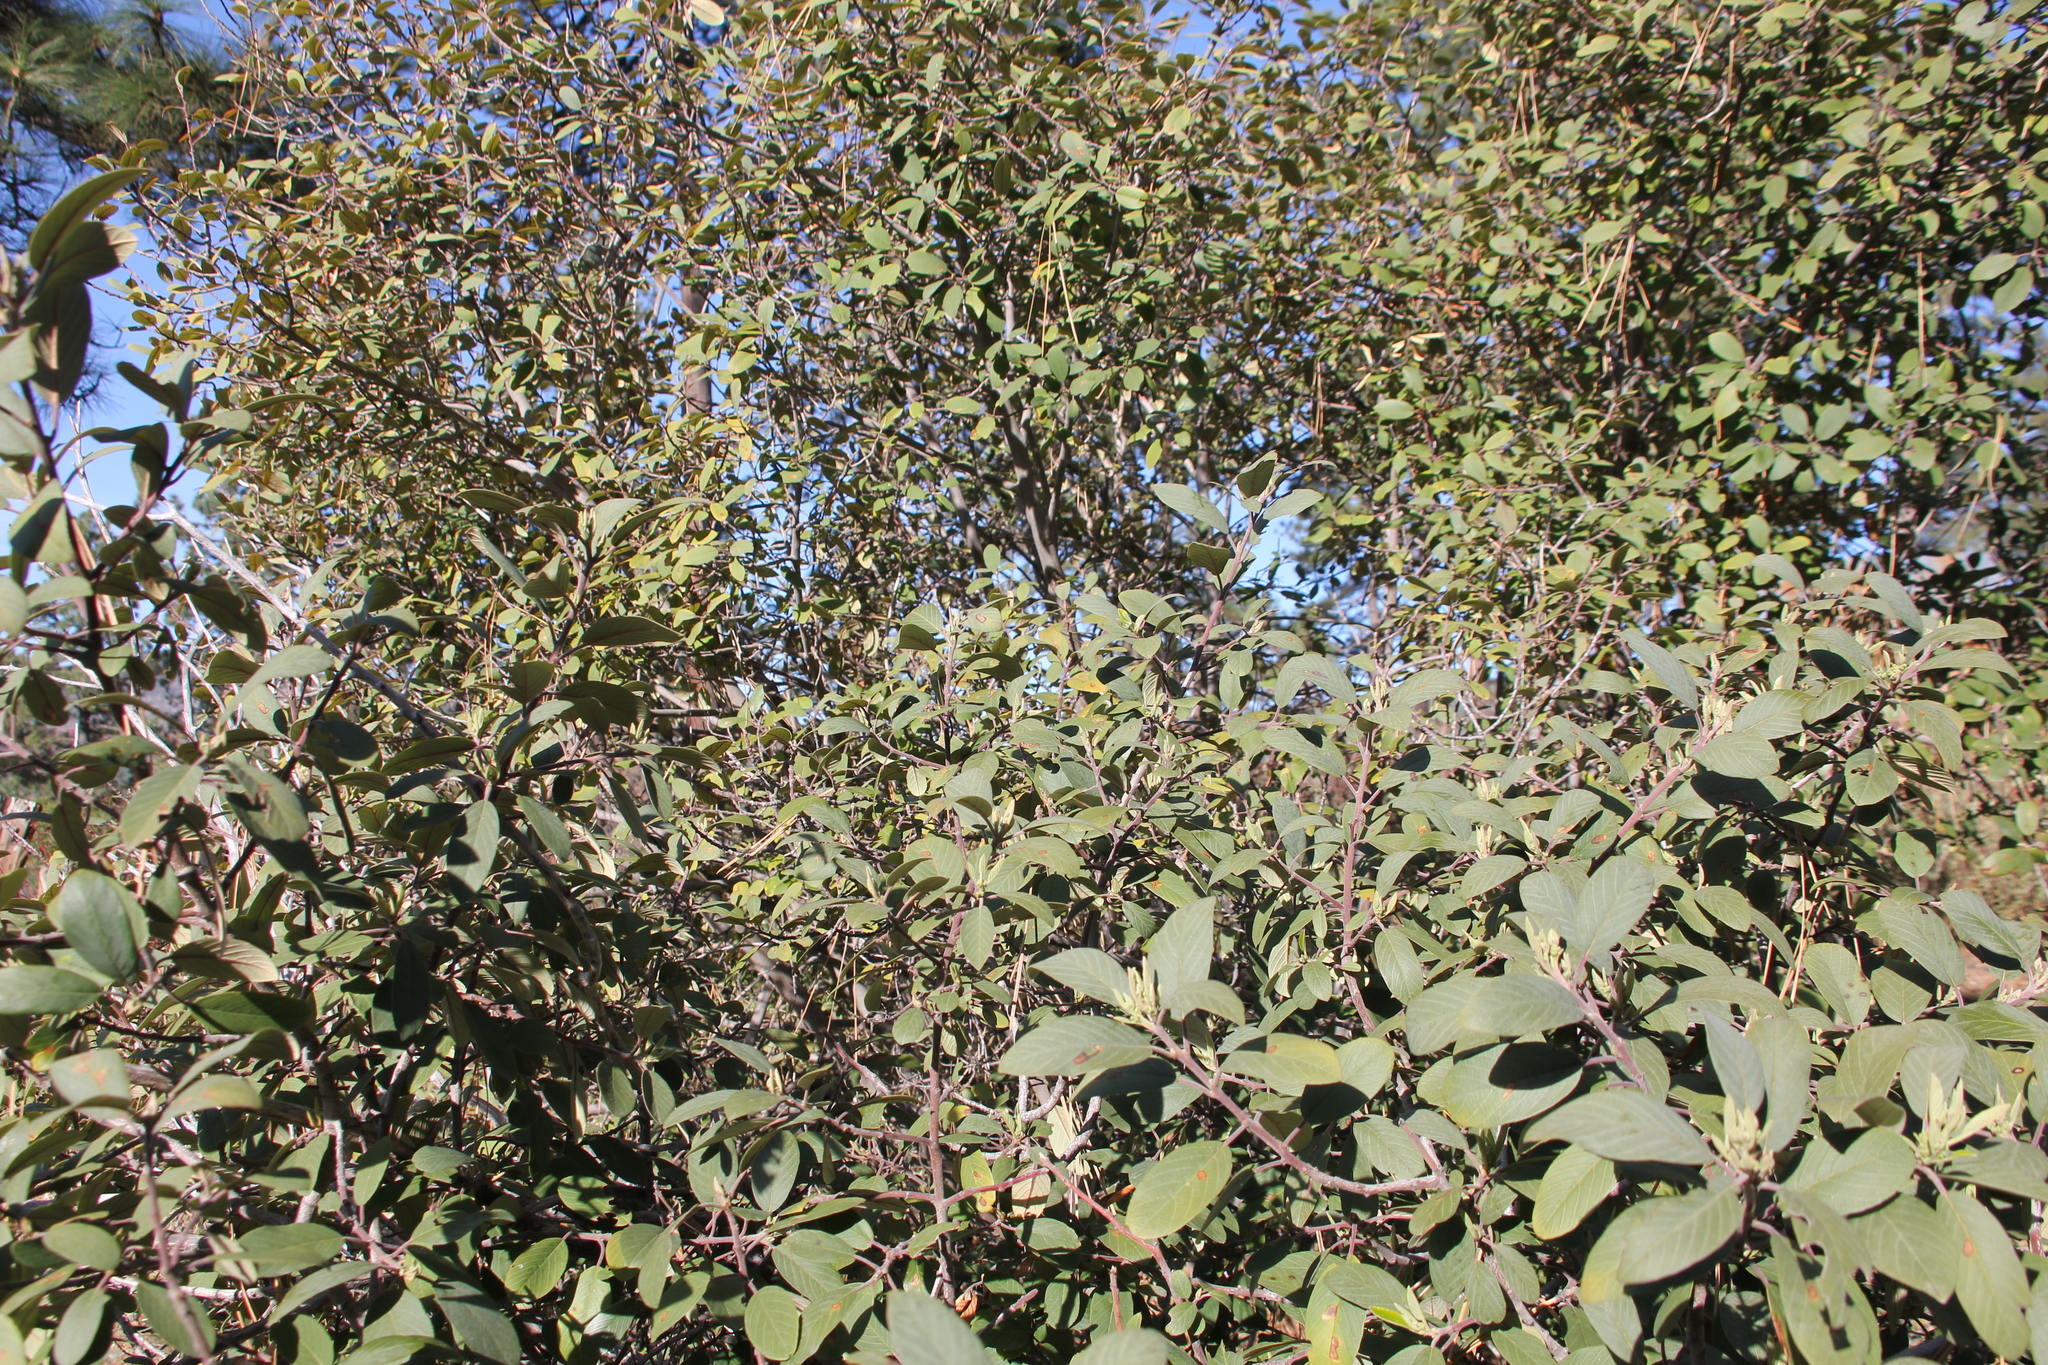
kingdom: Plantae
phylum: Tracheophyta
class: Magnoliopsida
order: Rosales
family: Rhamnaceae
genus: Frangula
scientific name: Frangula californica
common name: California buckthorn
